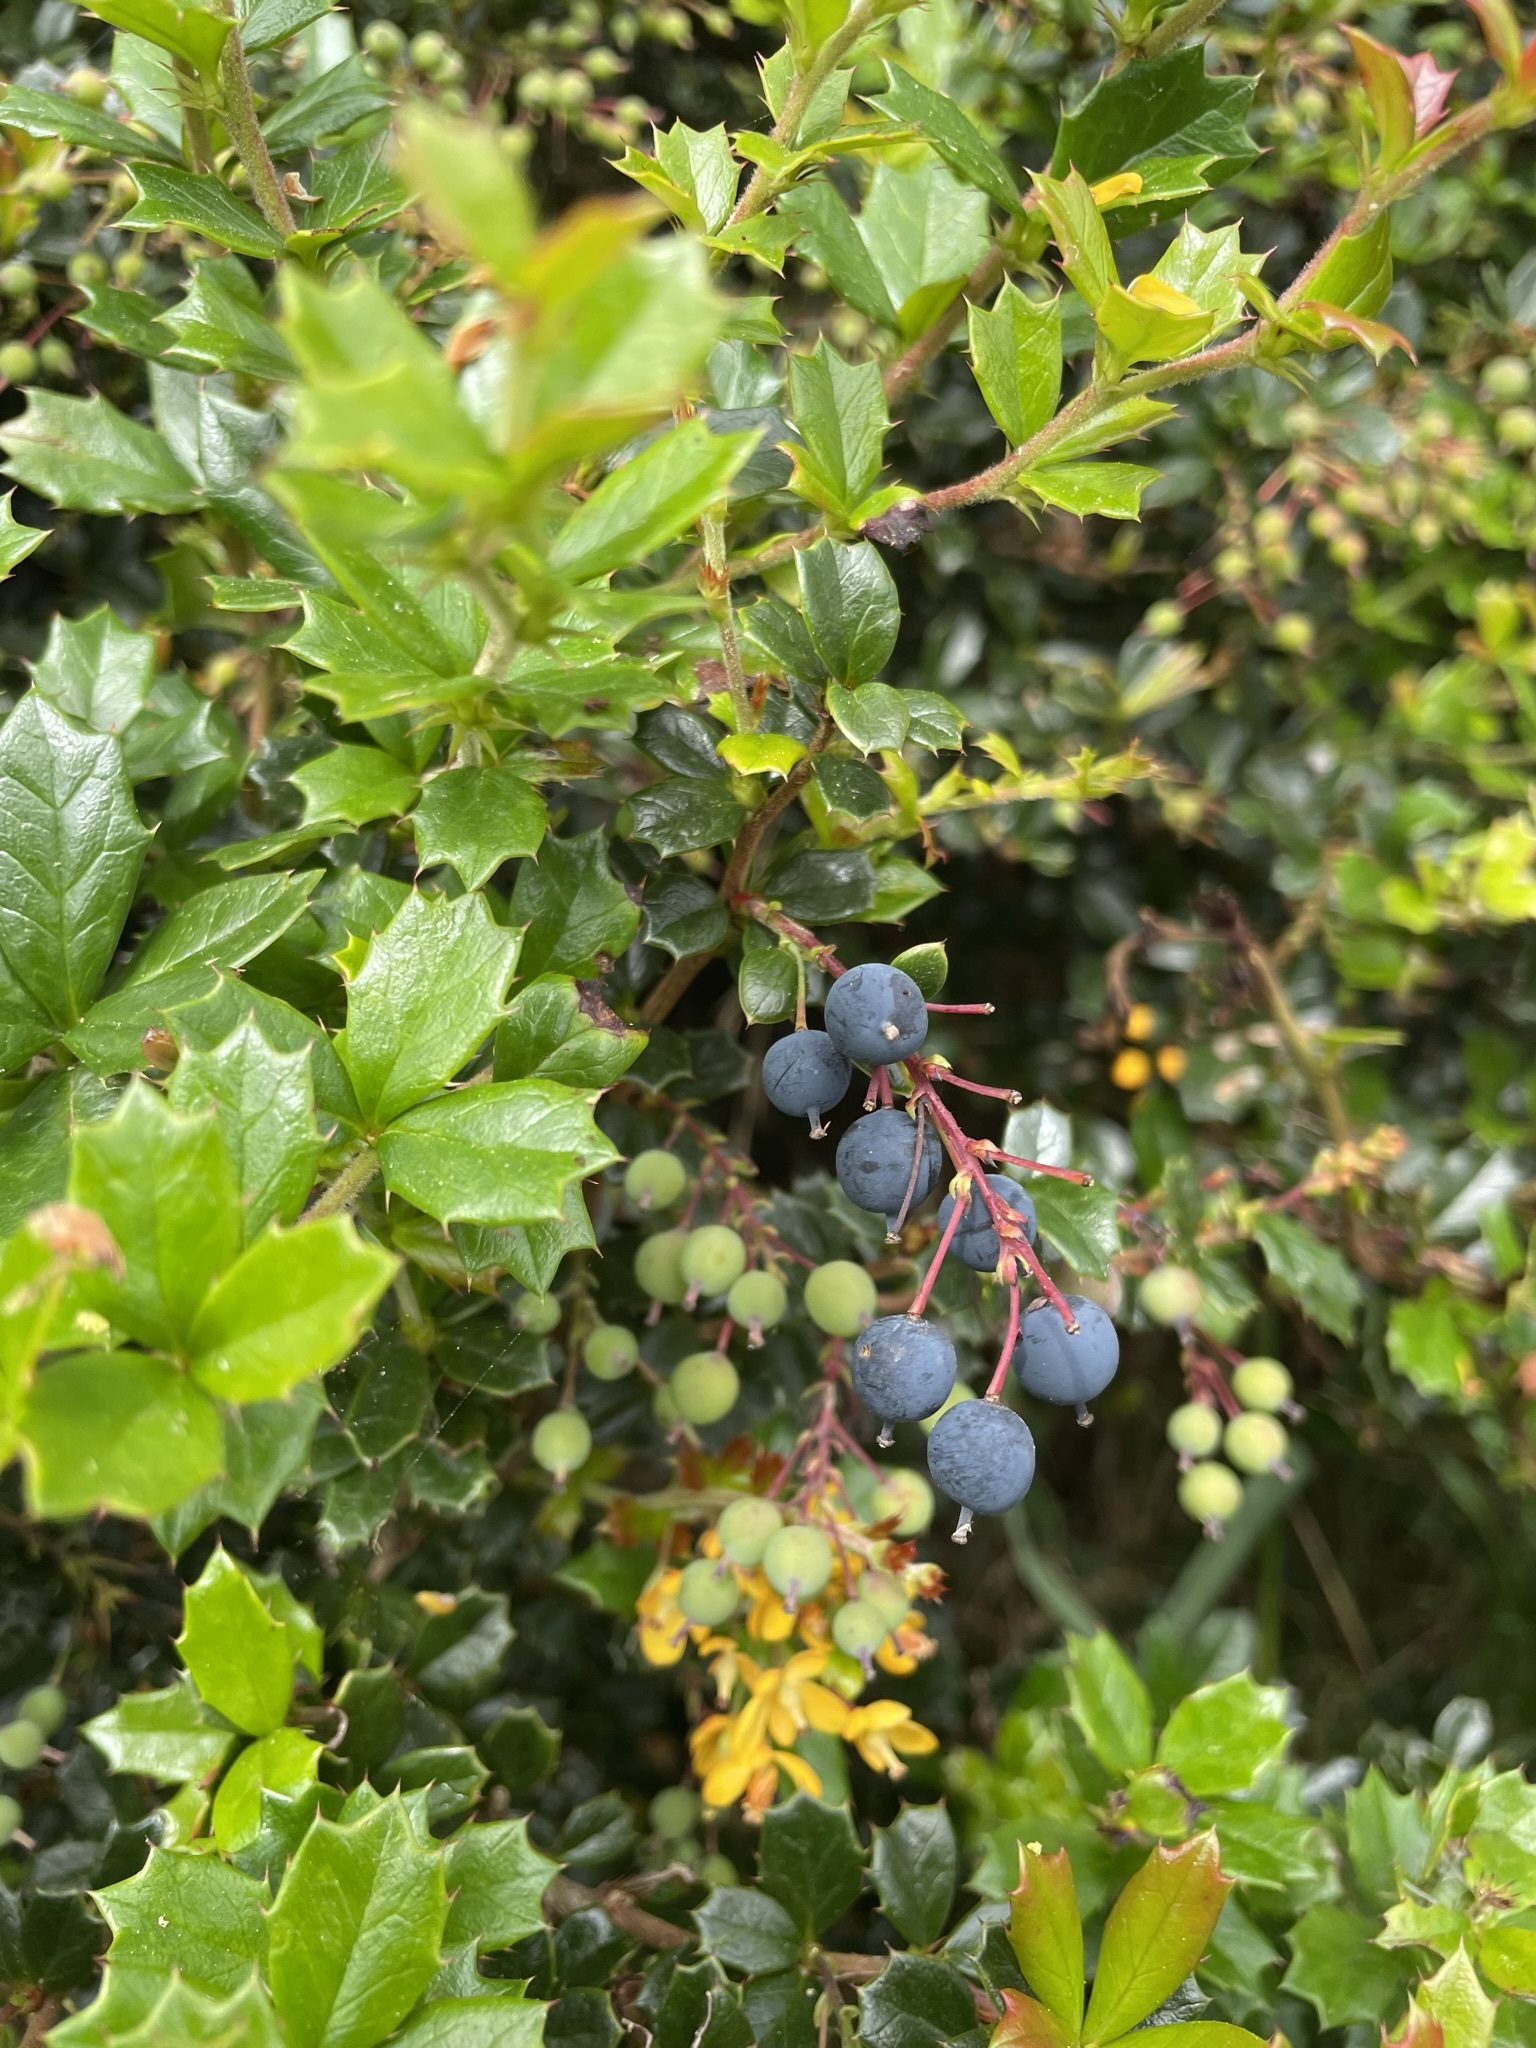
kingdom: Plantae
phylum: Tracheophyta
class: Magnoliopsida
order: Ranunculales
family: Berberidaceae
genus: Berberis
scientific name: Berberis darwinii
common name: Darwin's barberry
